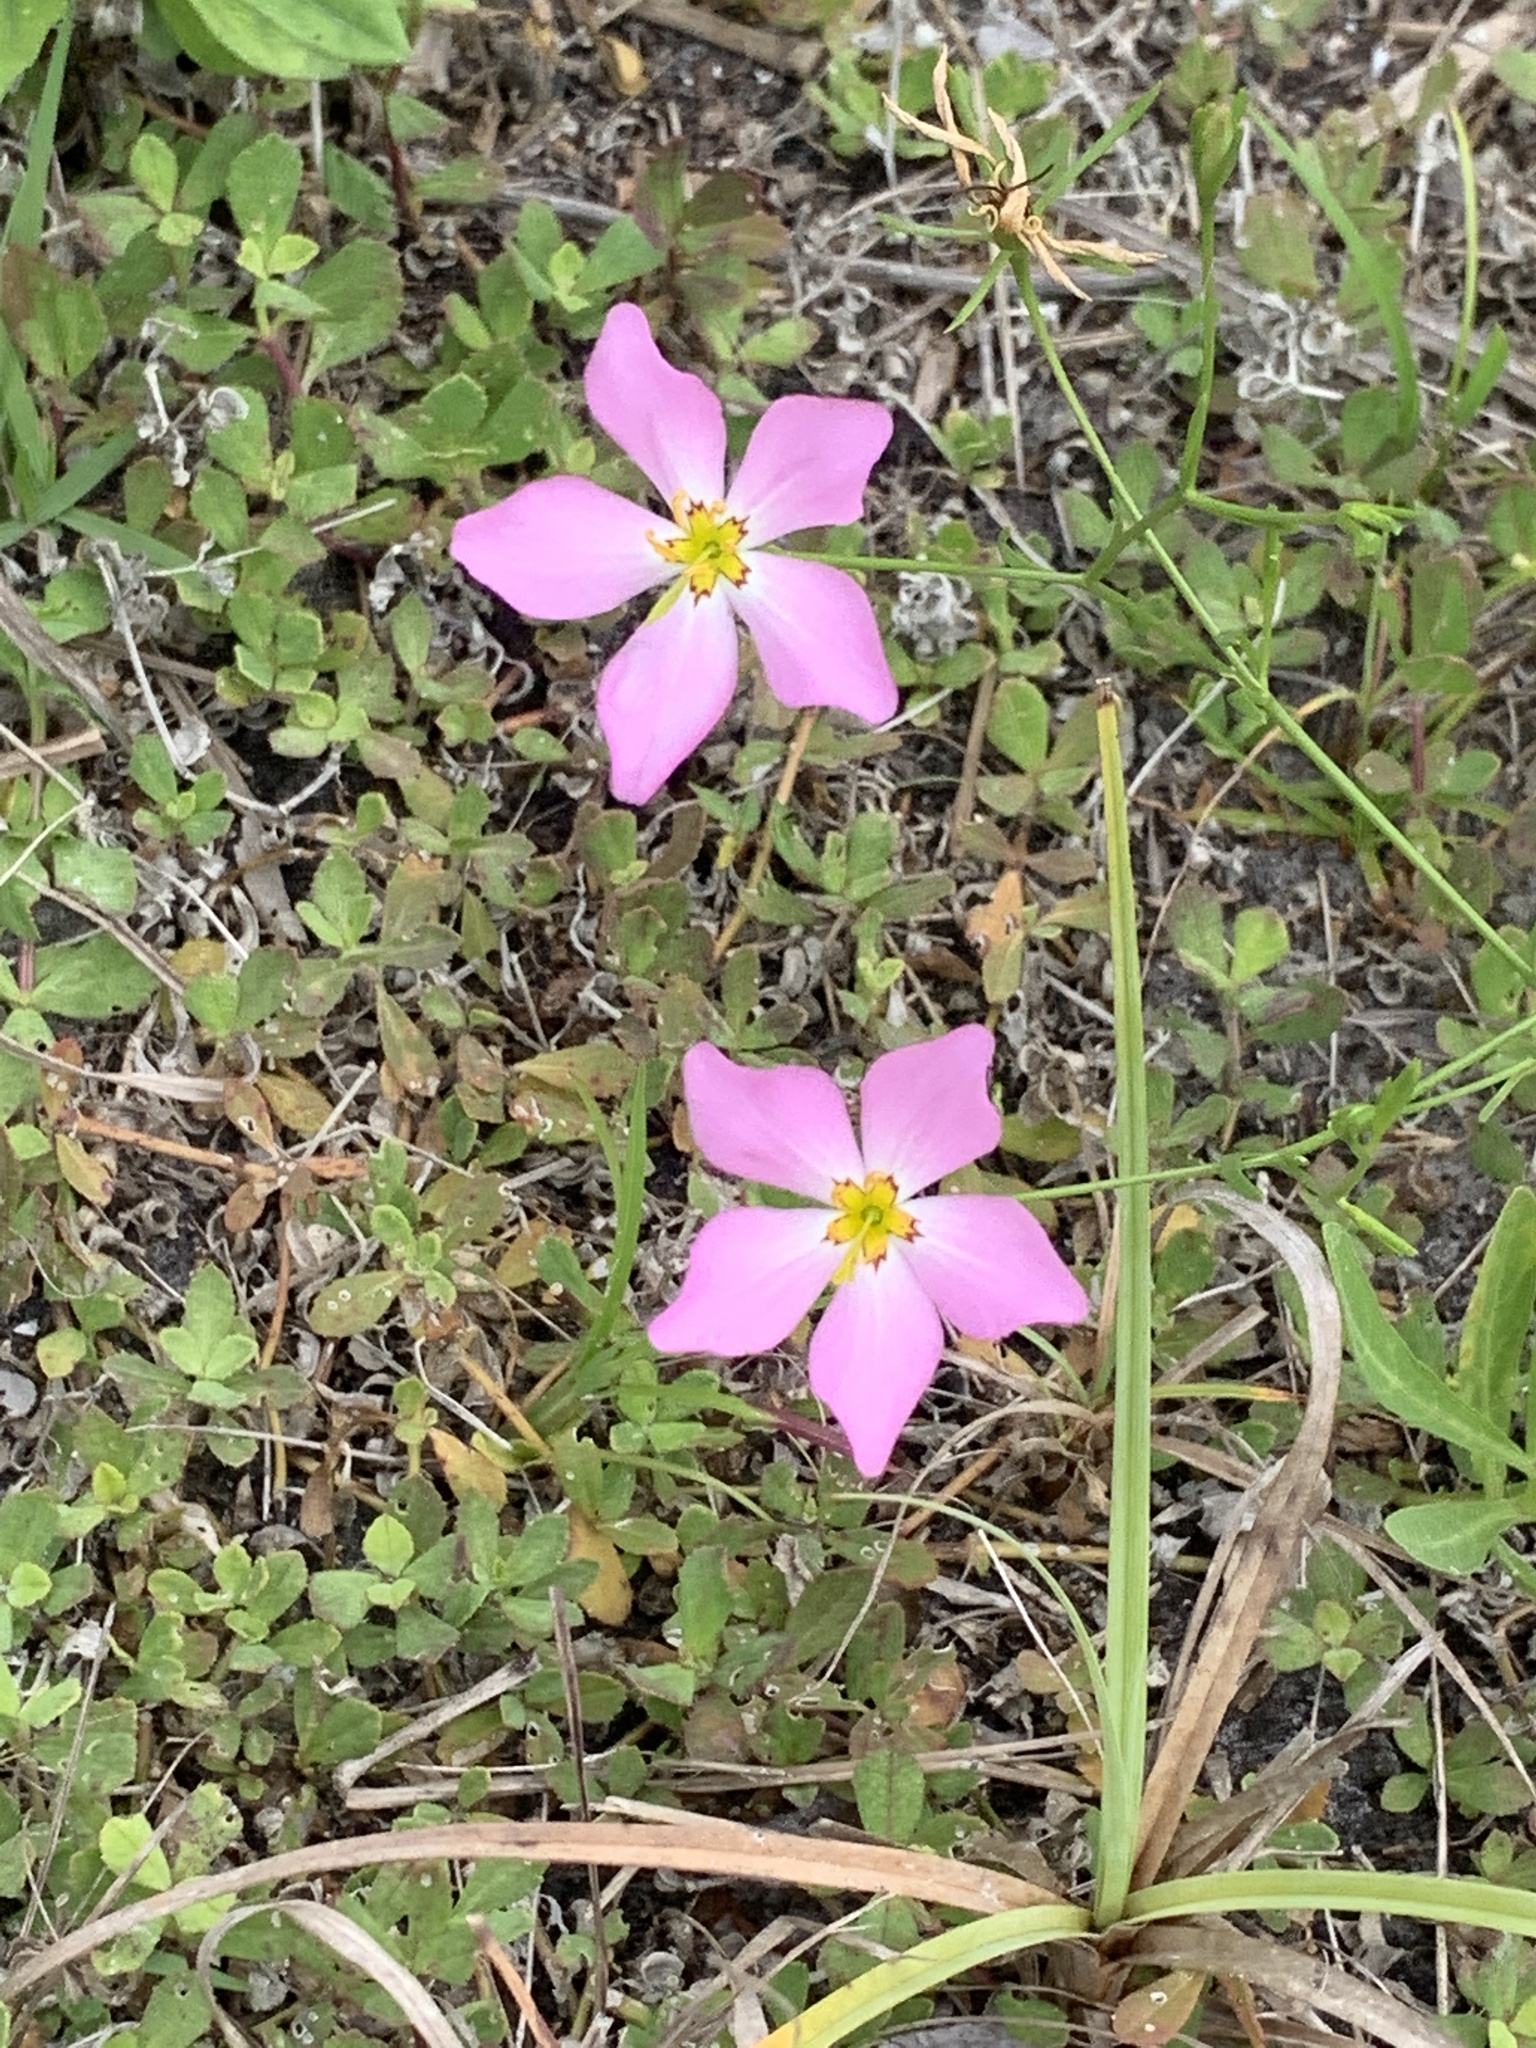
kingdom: Plantae
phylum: Tracheophyta
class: Magnoliopsida
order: Gentianales
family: Gentianaceae
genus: Sabatia
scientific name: Sabatia stellaris
